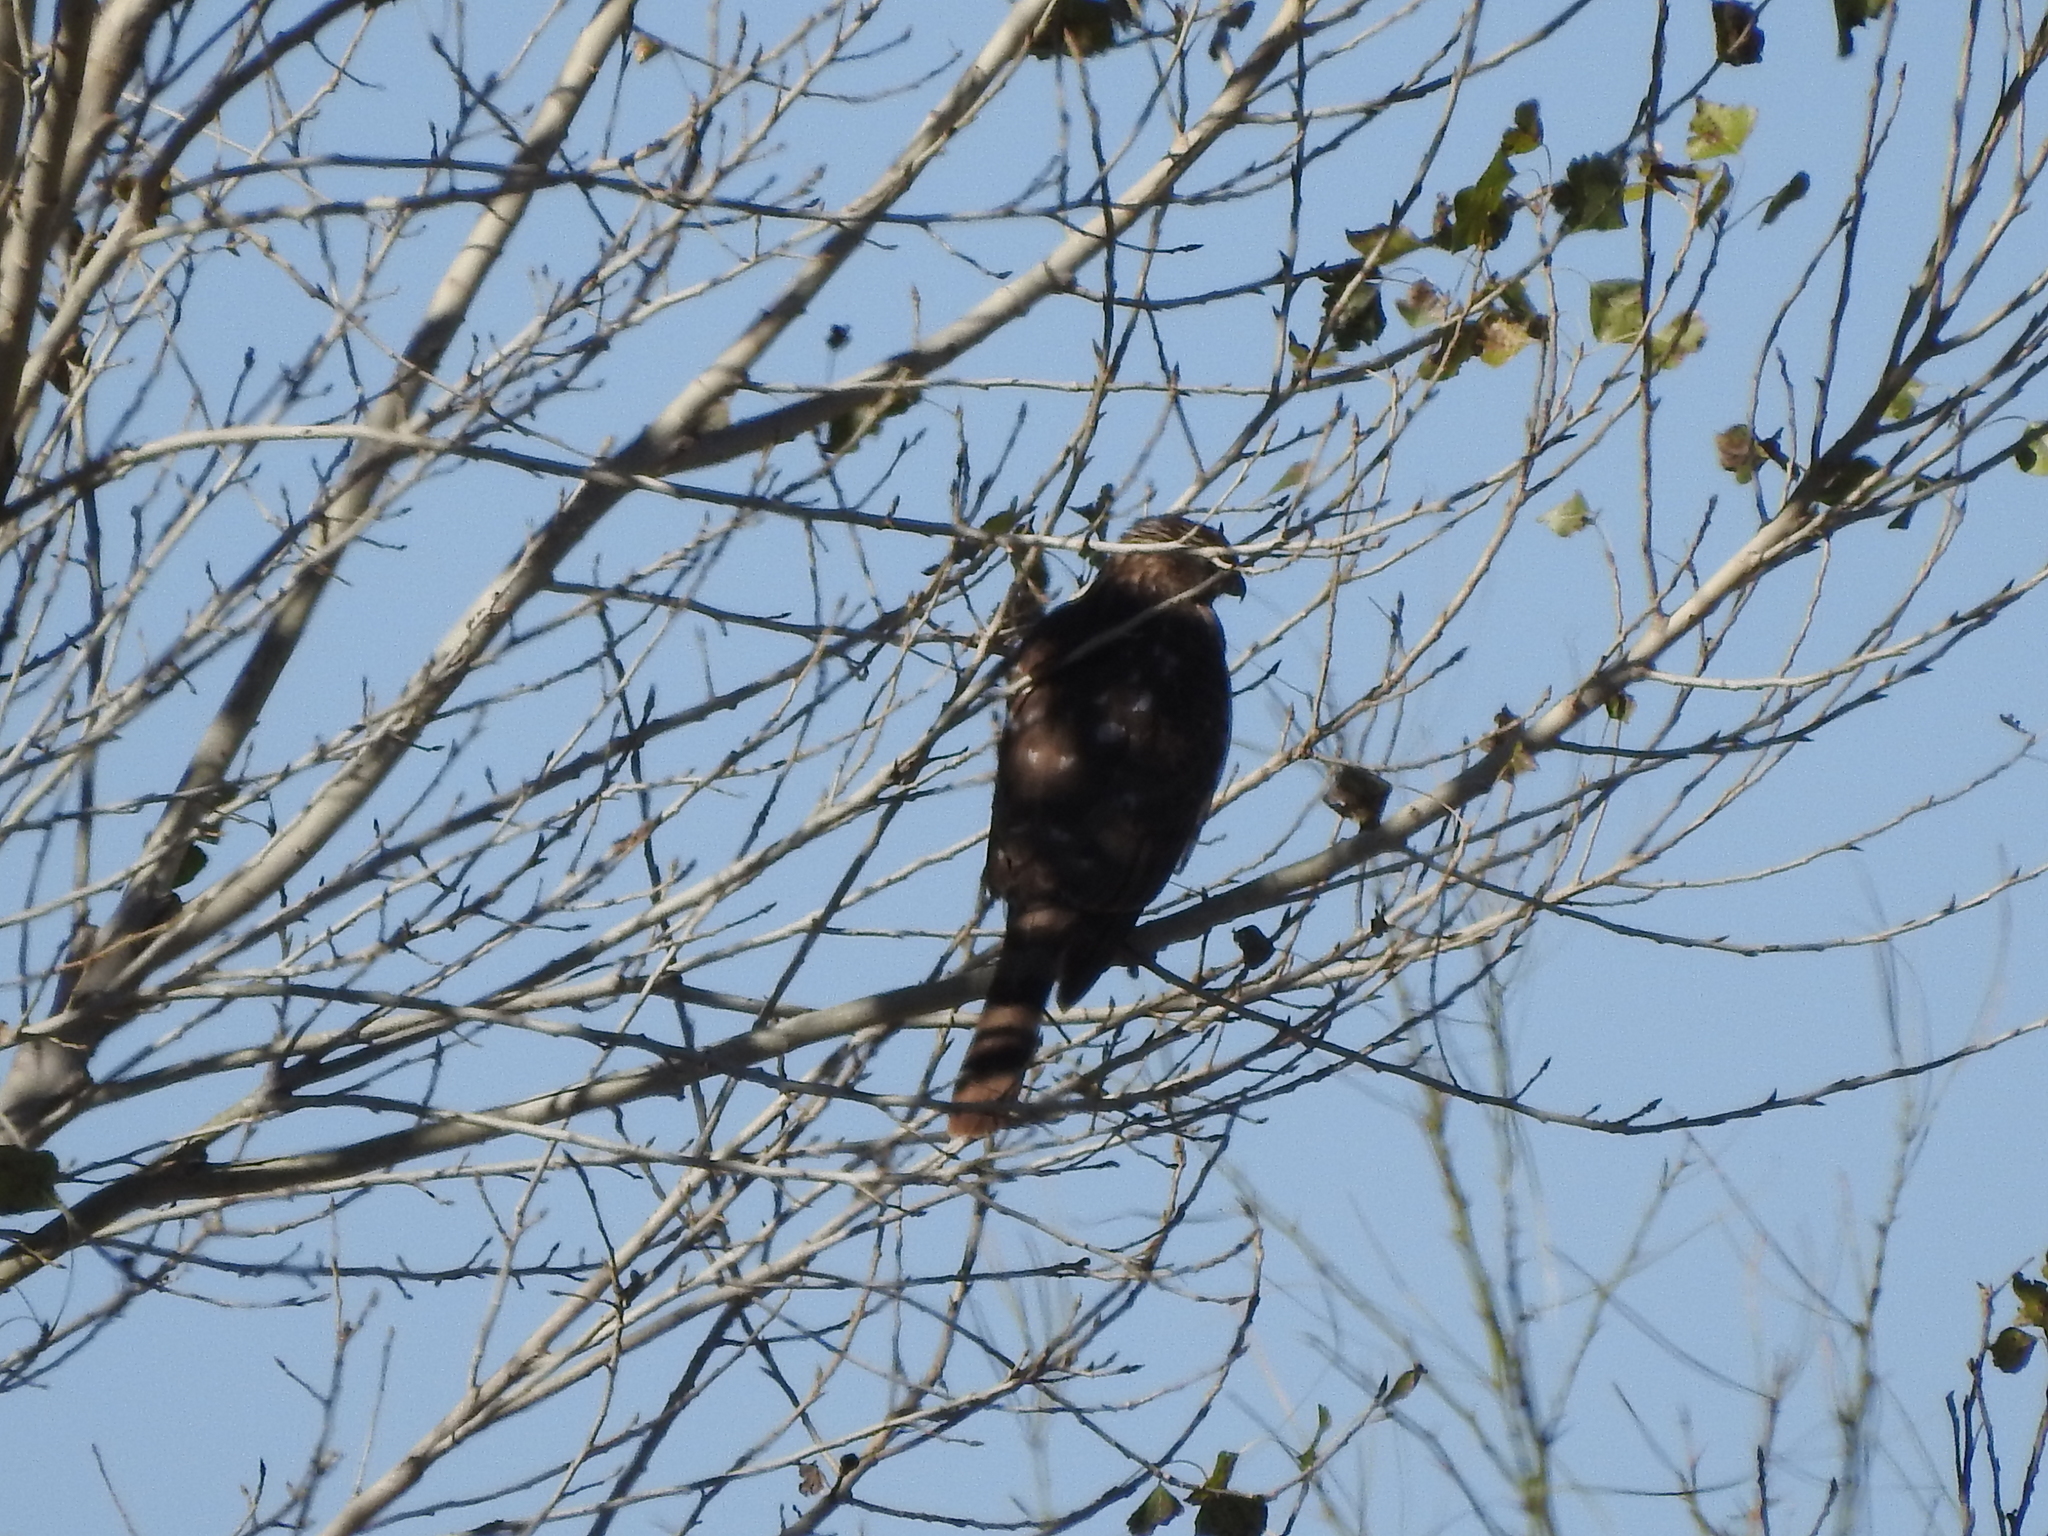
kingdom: Animalia
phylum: Chordata
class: Aves
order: Accipitriformes
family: Accipitridae
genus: Accipiter
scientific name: Accipiter cooperii
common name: Cooper's hawk
